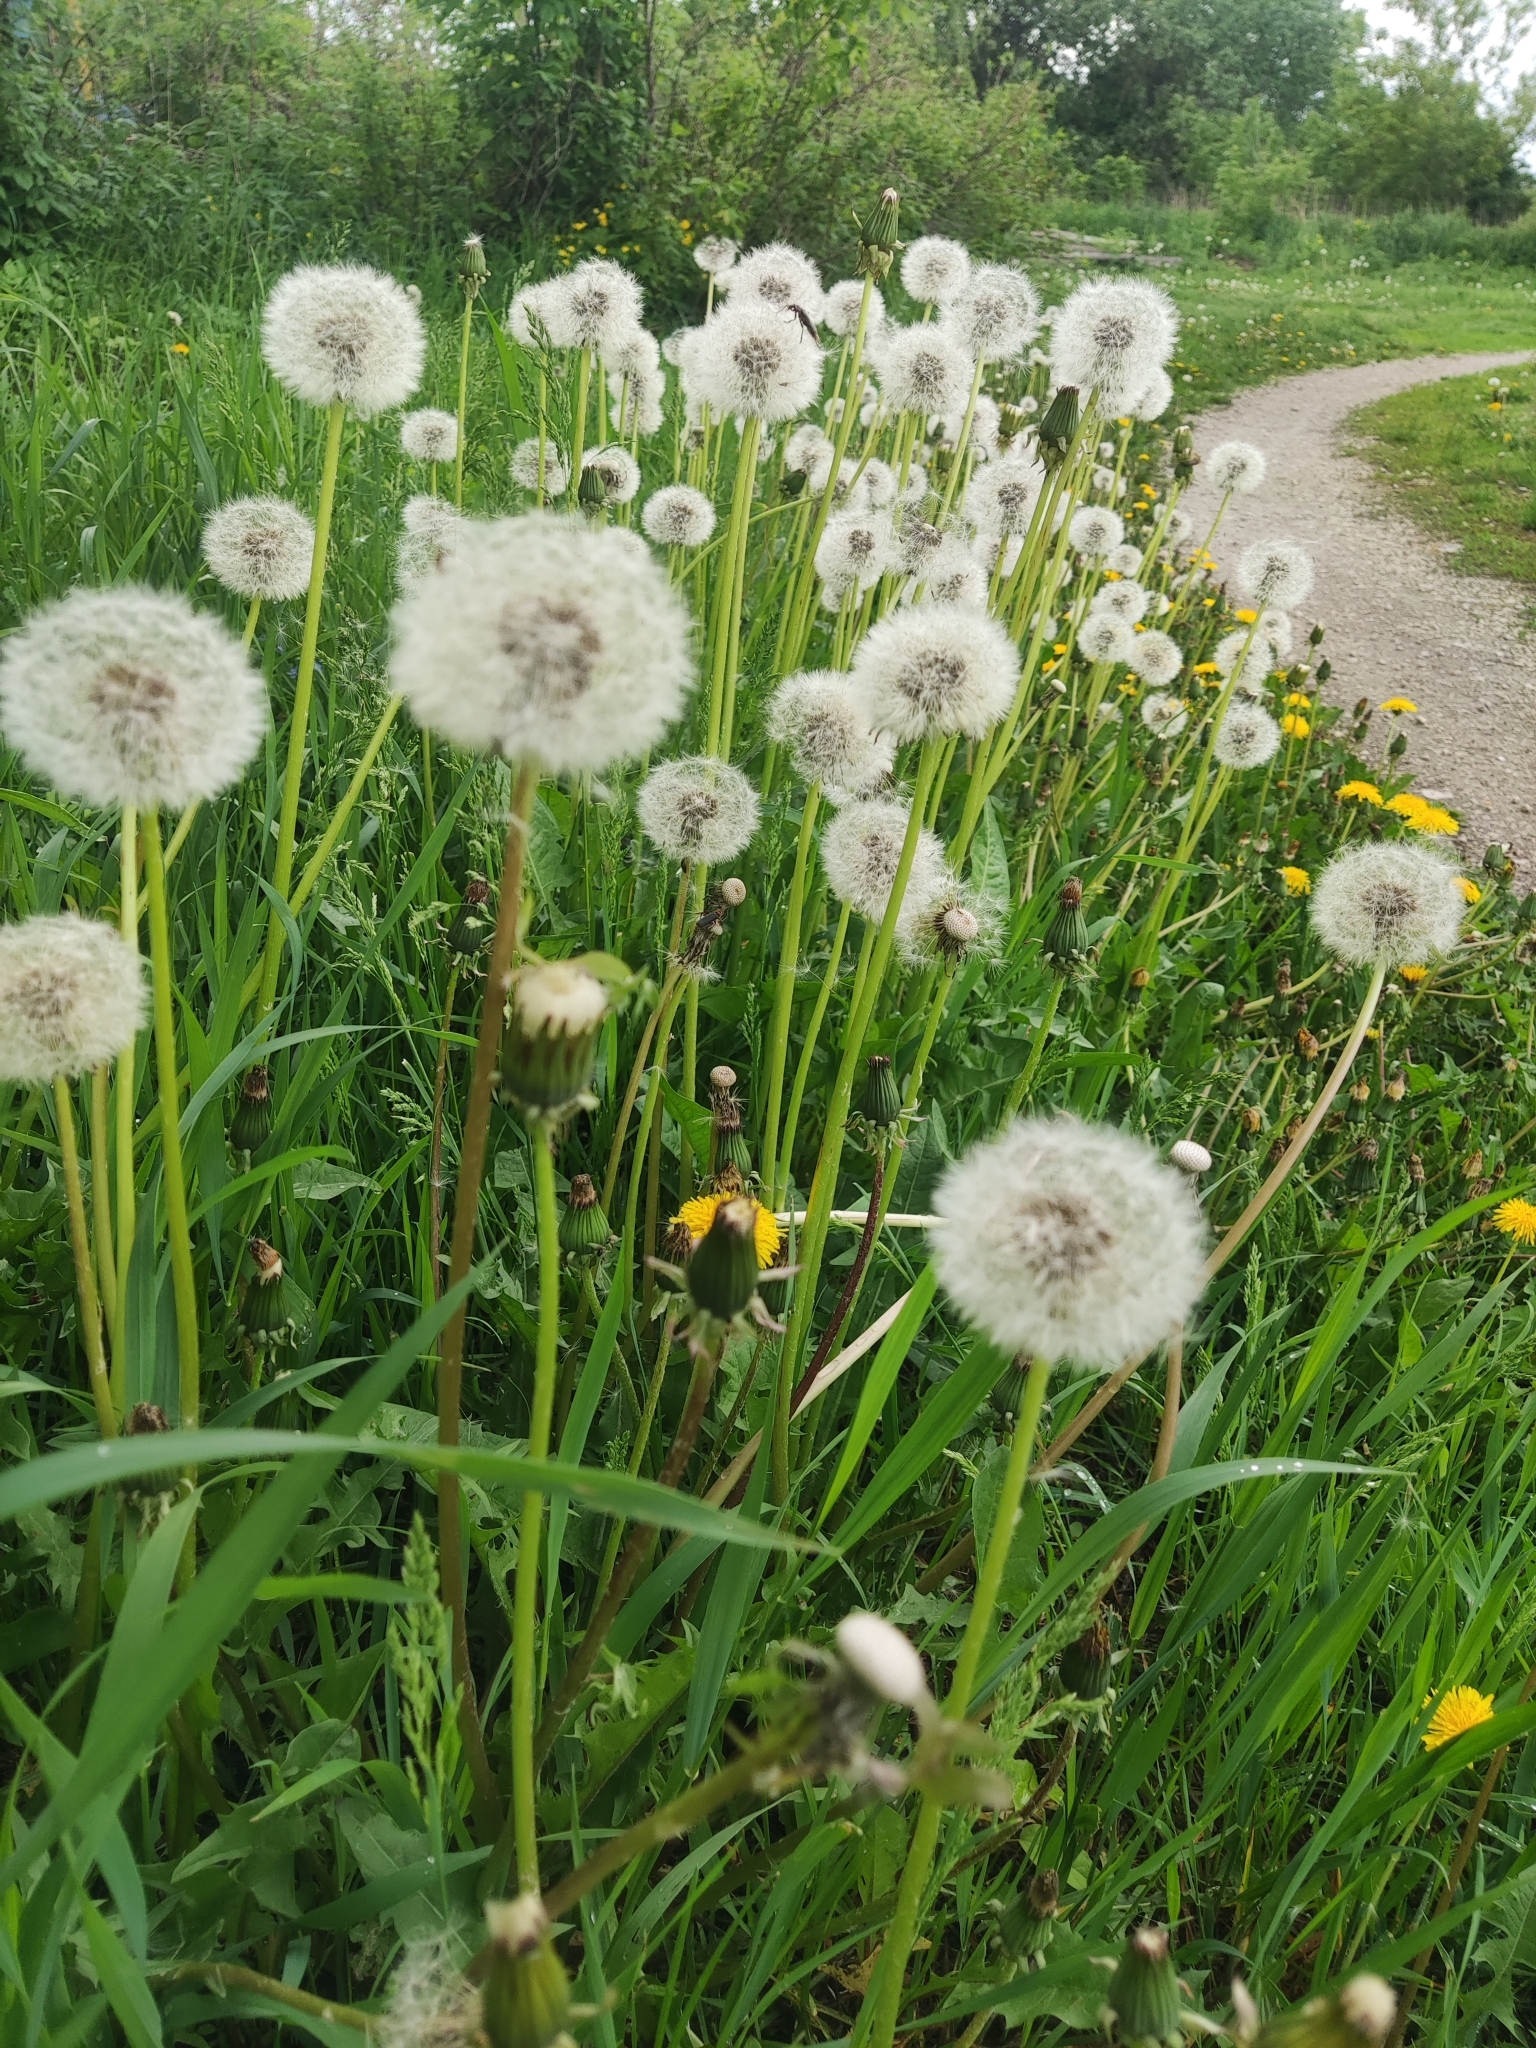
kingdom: Plantae
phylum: Tracheophyta
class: Magnoliopsida
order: Asterales
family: Asteraceae
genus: Taraxacum
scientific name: Taraxacum officinale
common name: Common dandelion
